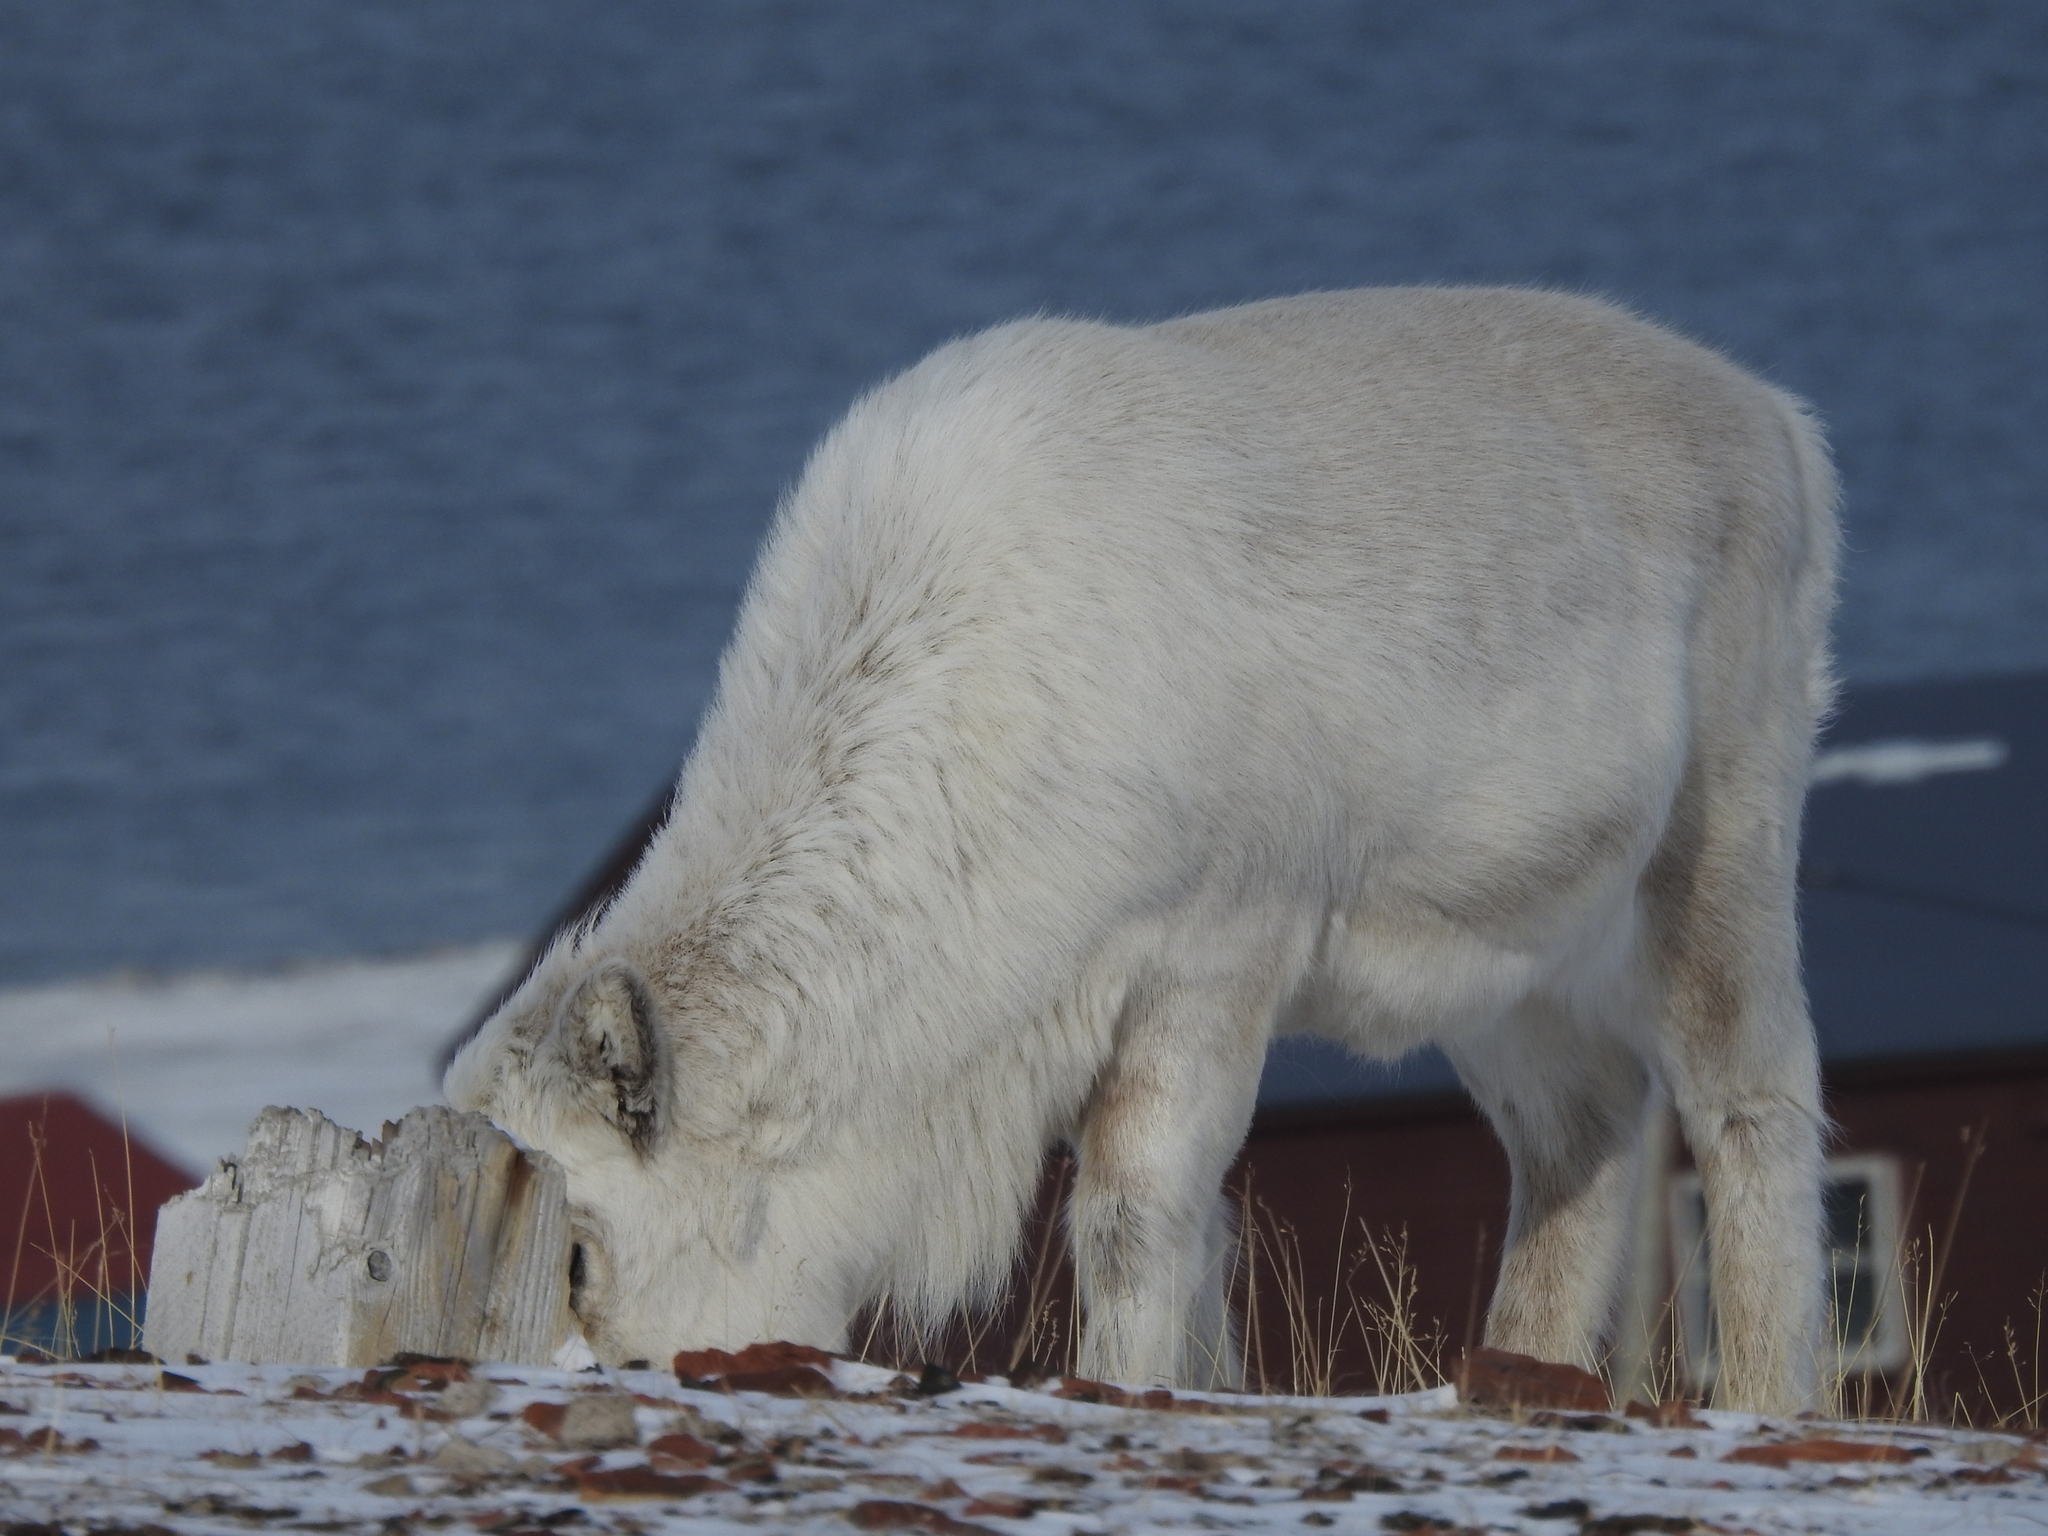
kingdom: Animalia
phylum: Chordata
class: Mammalia
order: Artiodactyla
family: Cervidae
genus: Rangifer
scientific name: Rangifer tarandus
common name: Reindeer
